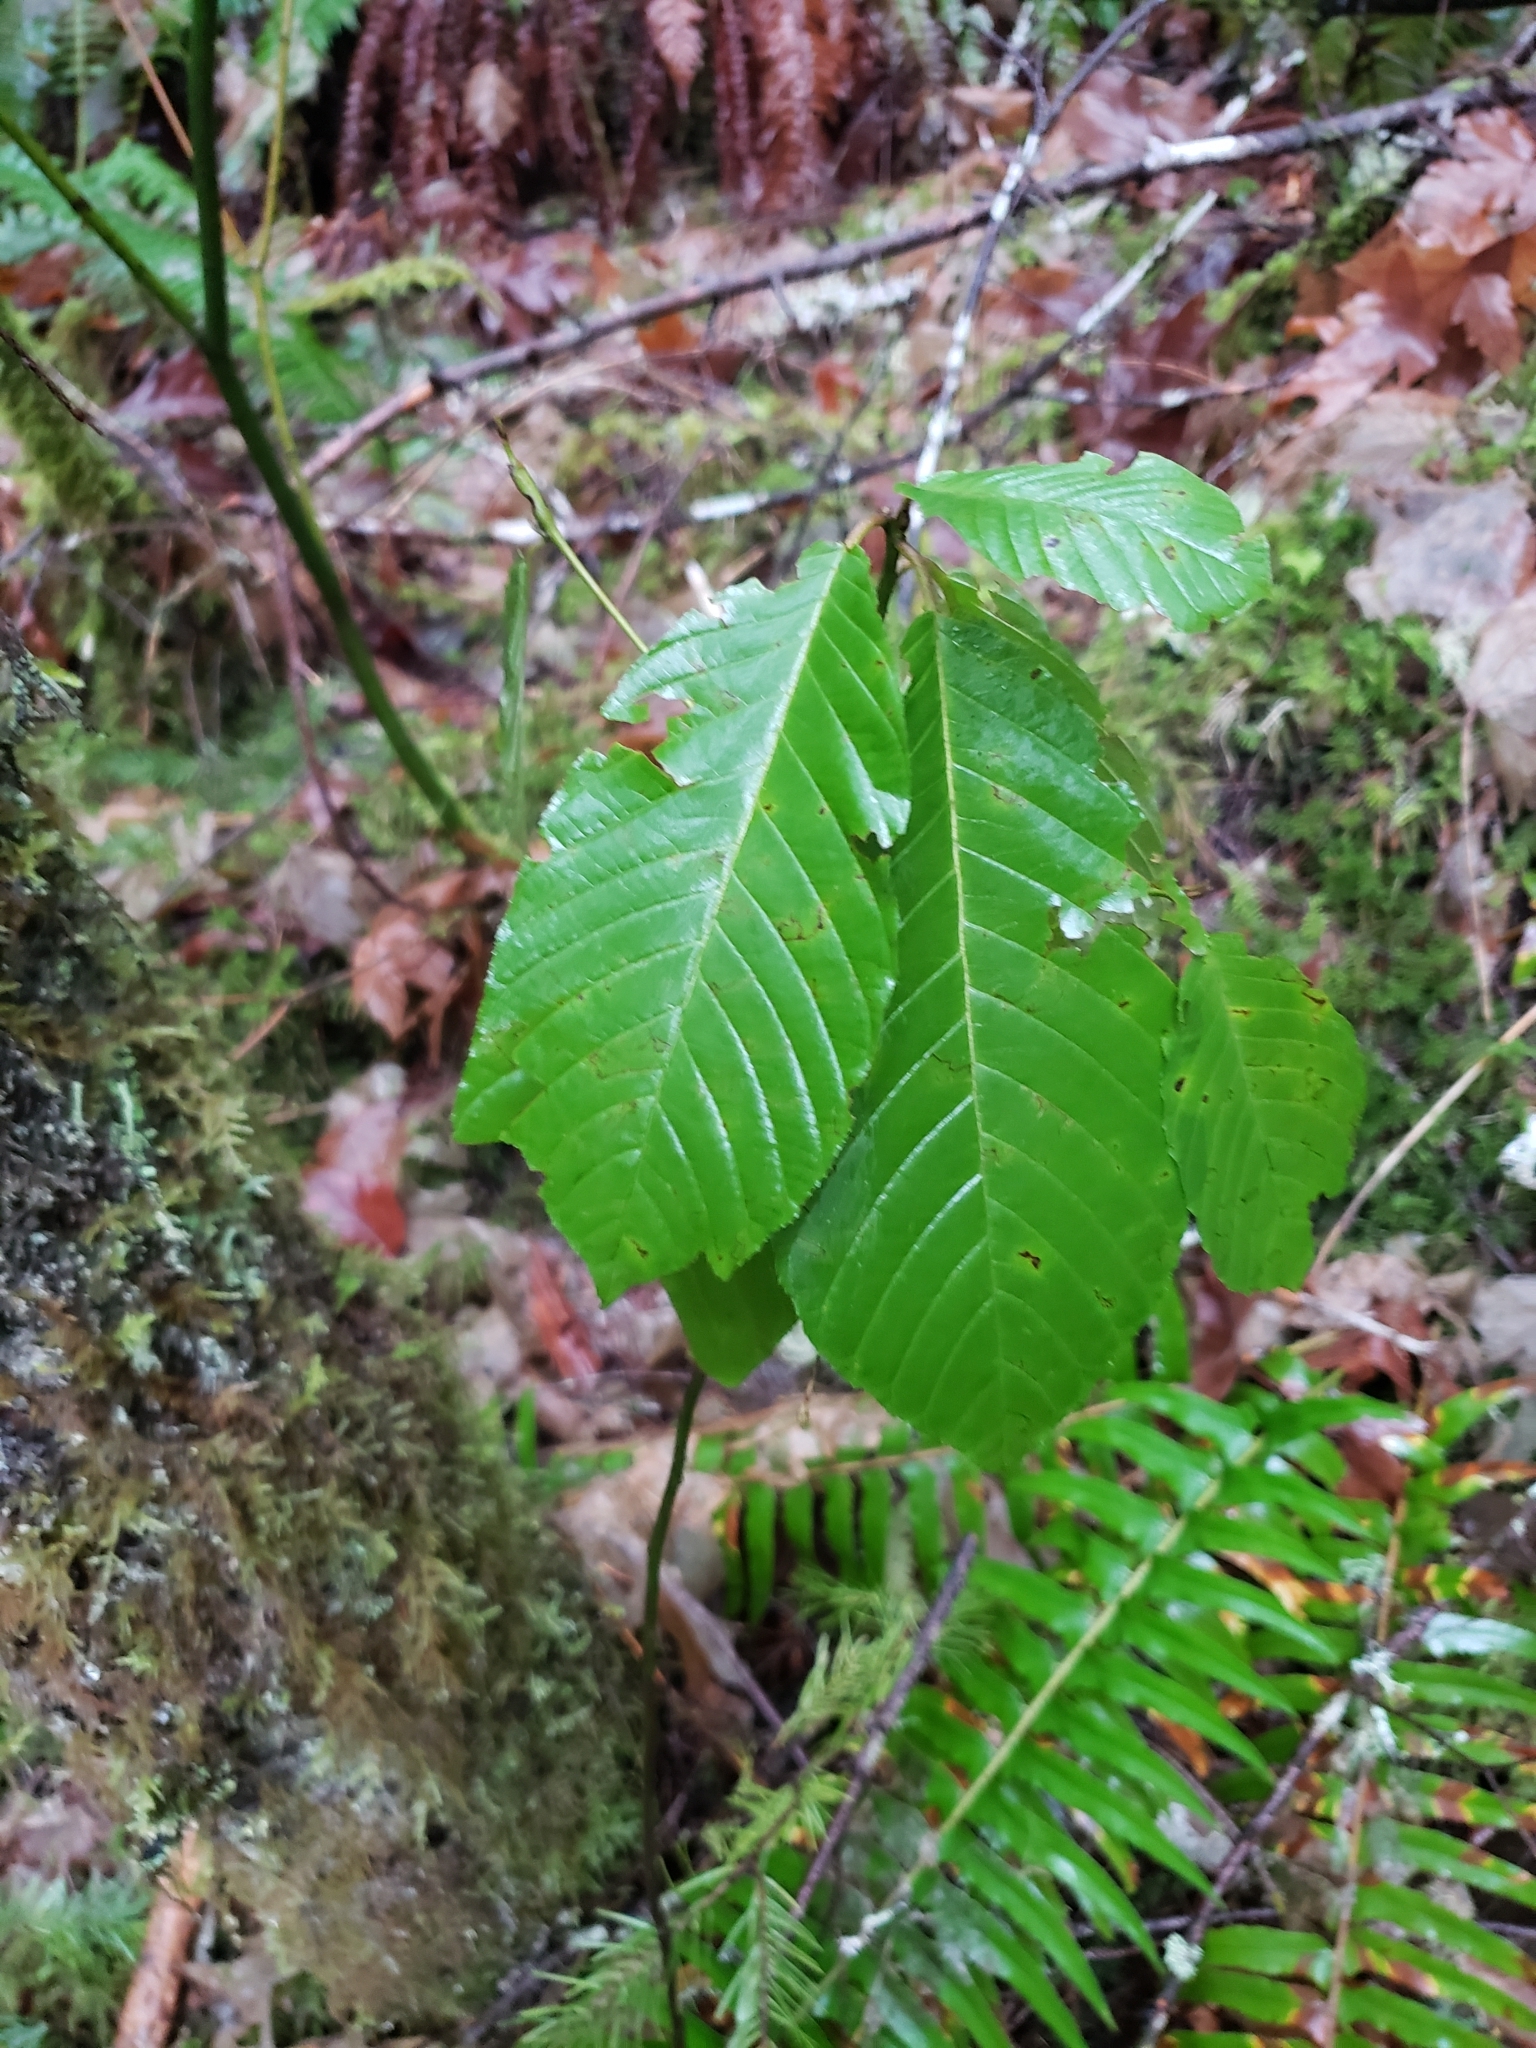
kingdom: Plantae
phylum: Tracheophyta
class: Magnoliopsida
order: Rosales
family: Rhamnaceae
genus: Frangula
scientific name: Frangula purshiana
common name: Cascara buckthorn
